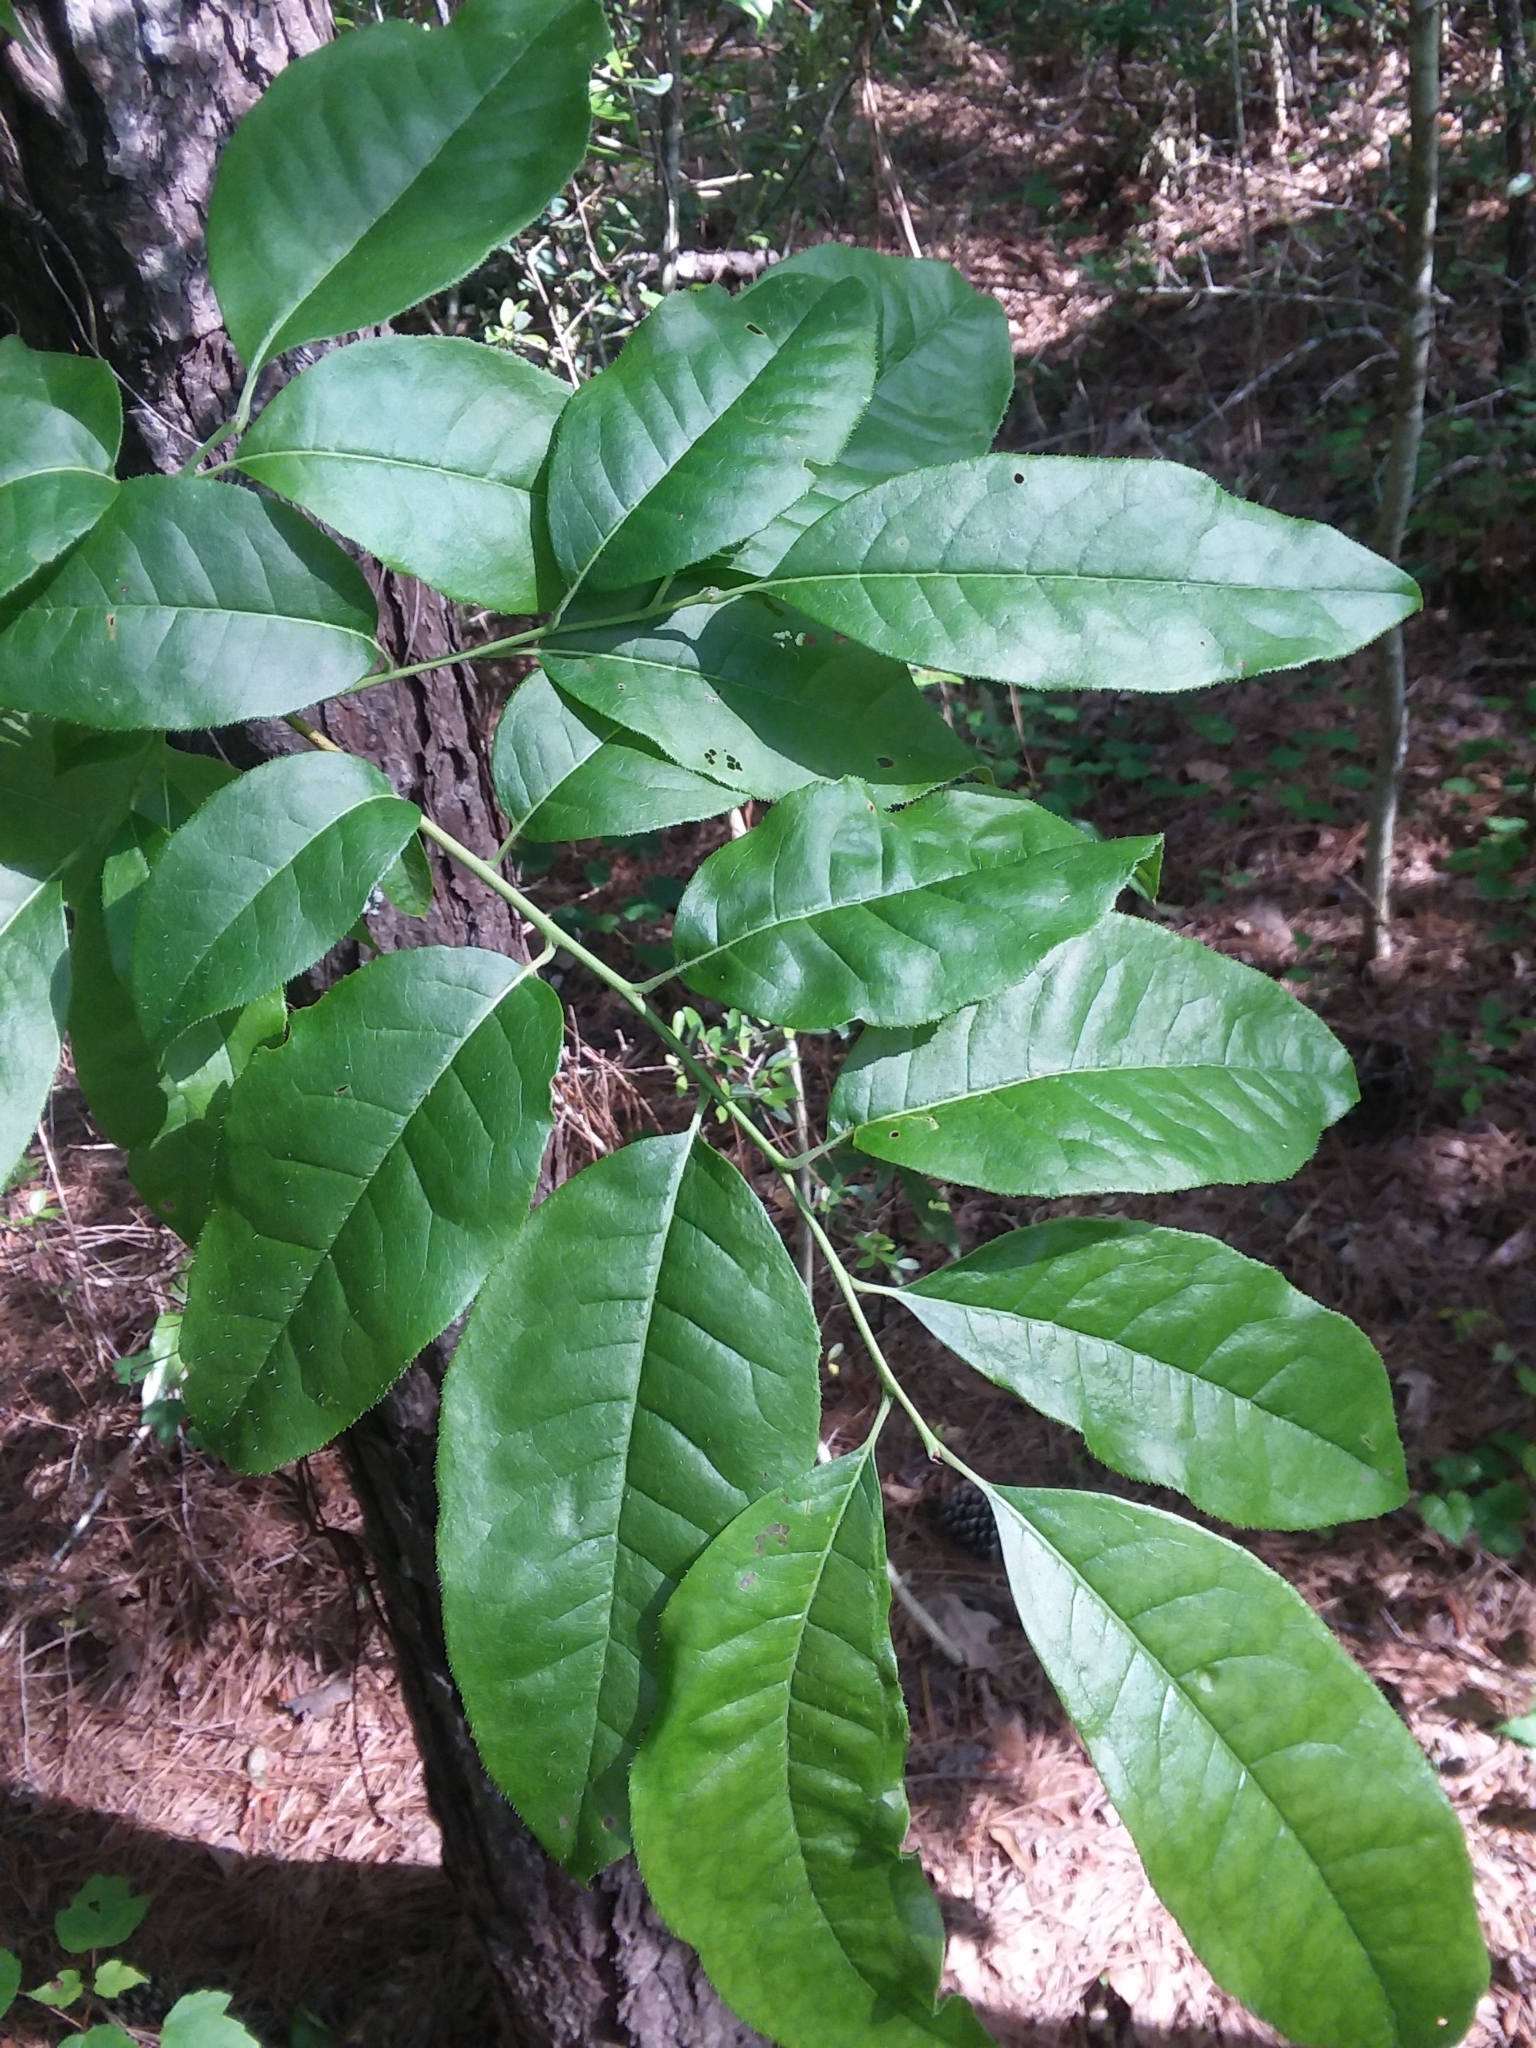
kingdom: Plantae
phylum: Tracheophyta
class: Magnoliopsida
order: Ericales
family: Ericaceae
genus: Oxydendrum
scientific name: Oxydendrum arboreum
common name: Sourwood
